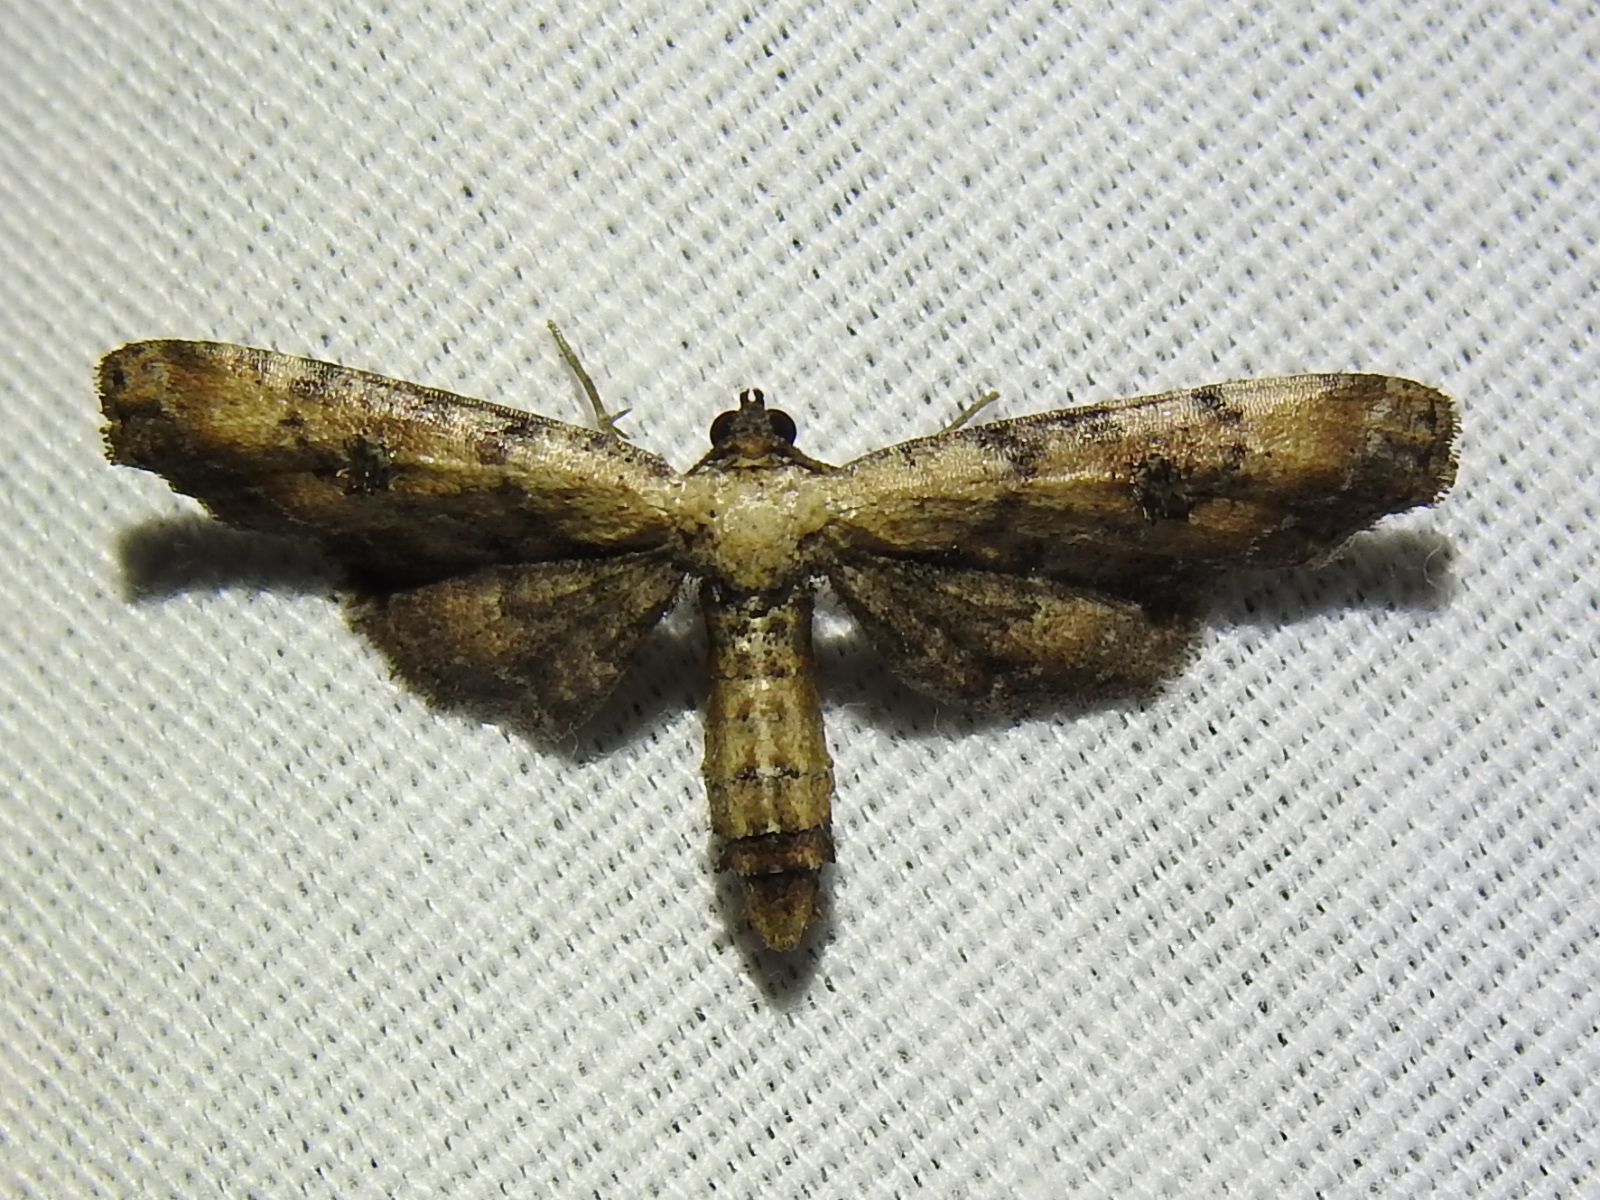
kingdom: Animalia
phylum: Arthropoda
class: Insecta
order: Lepidoptera
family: Geometridae
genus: Tornos
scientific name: Tornos scolopacinaria
